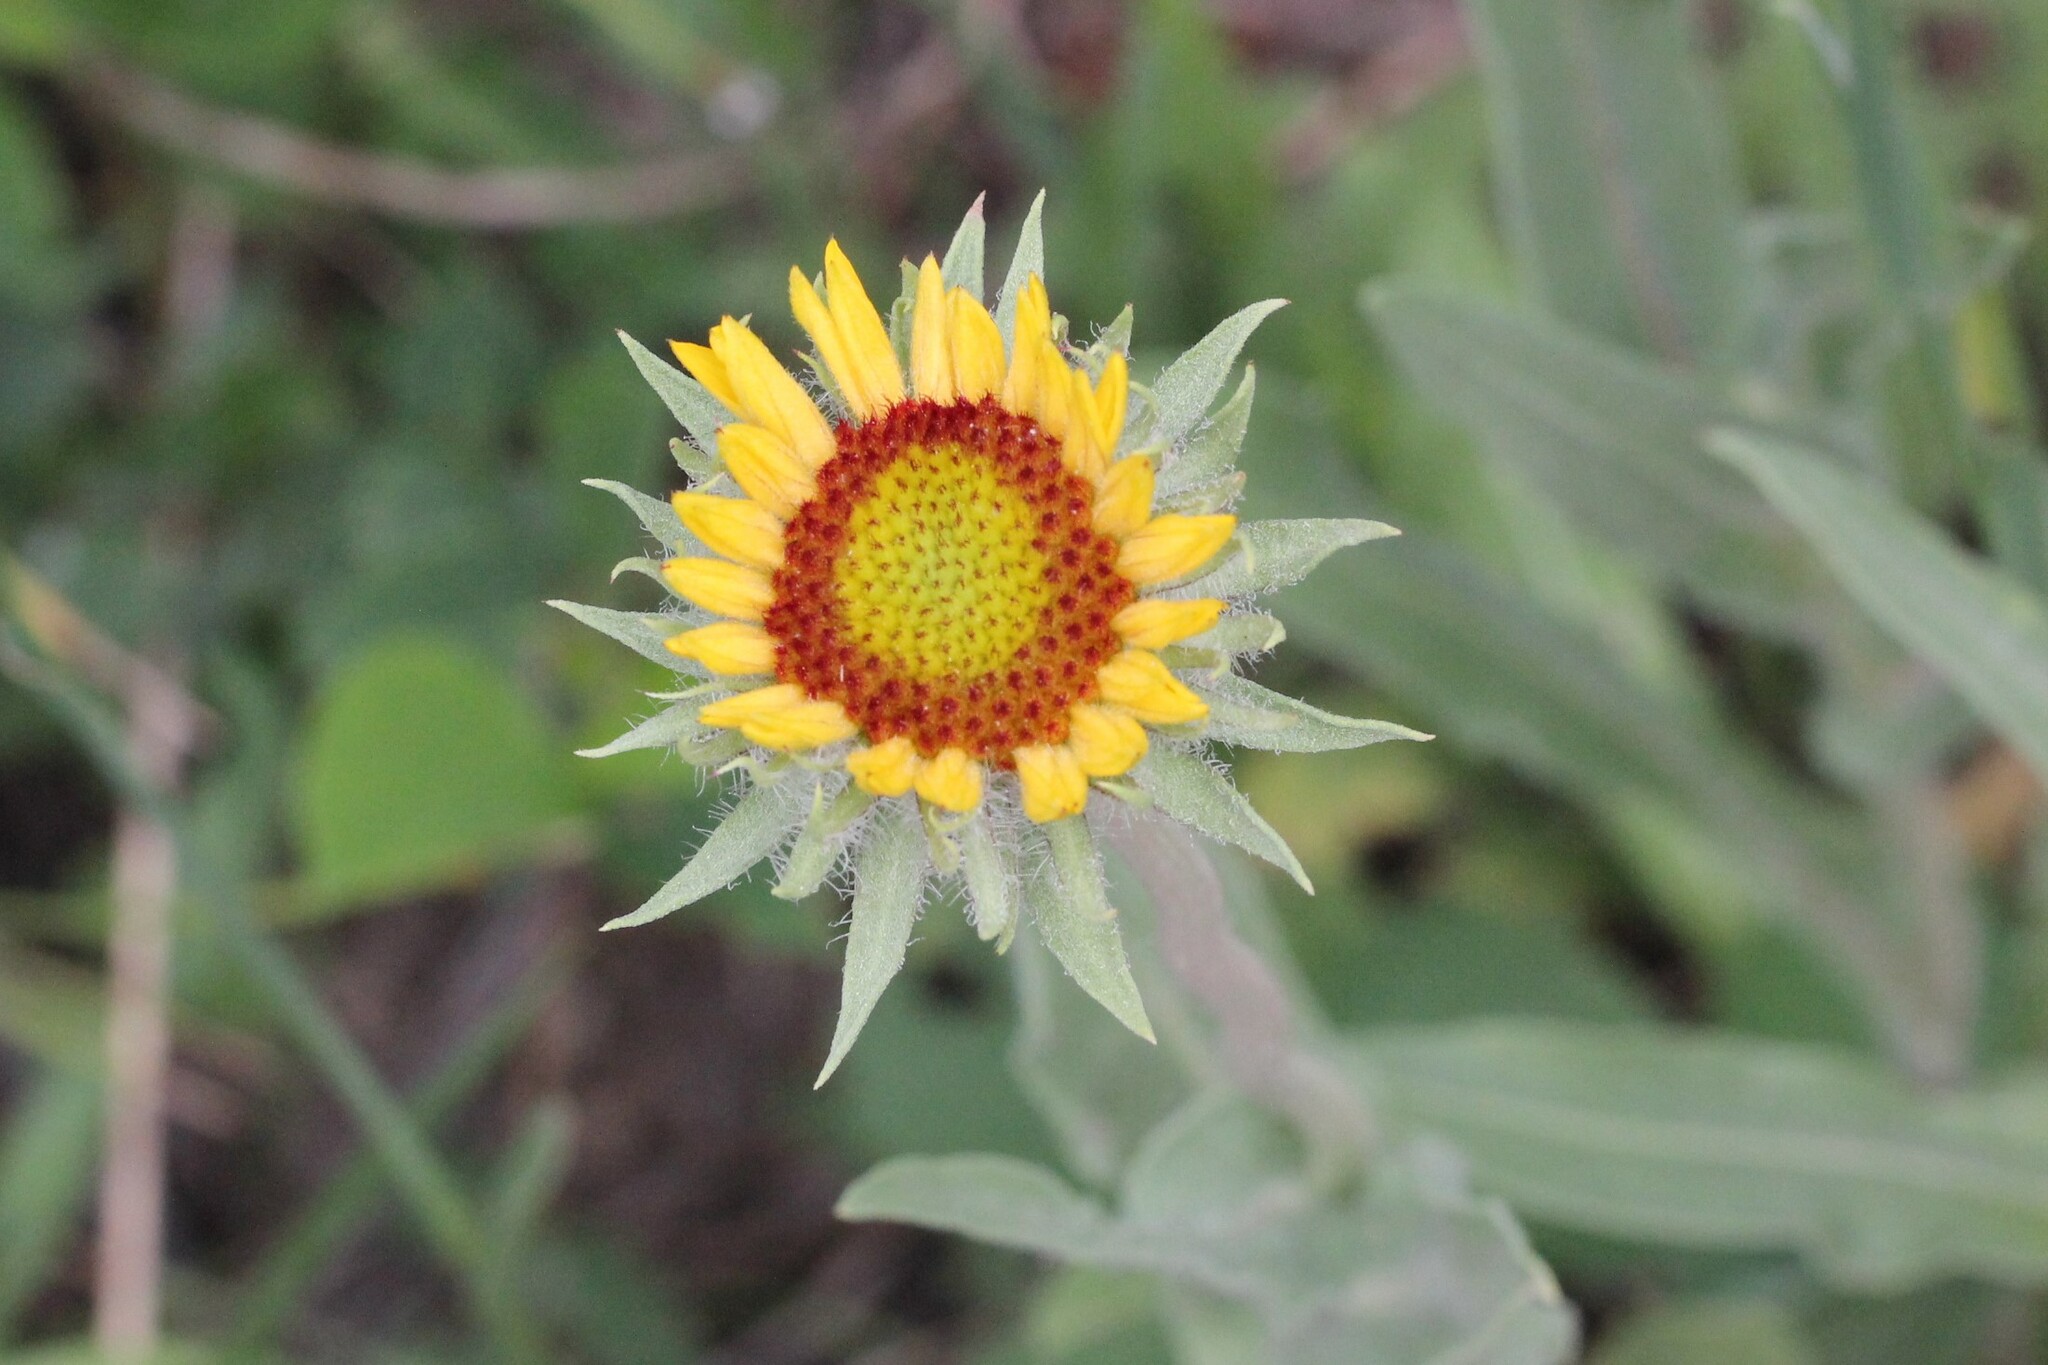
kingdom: Plantae
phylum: Tracheophyta
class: Magnoliopsida
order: Asterales
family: Asteraceae
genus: Gaillardia
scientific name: Gaillardia aristata
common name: Blanket-flower
